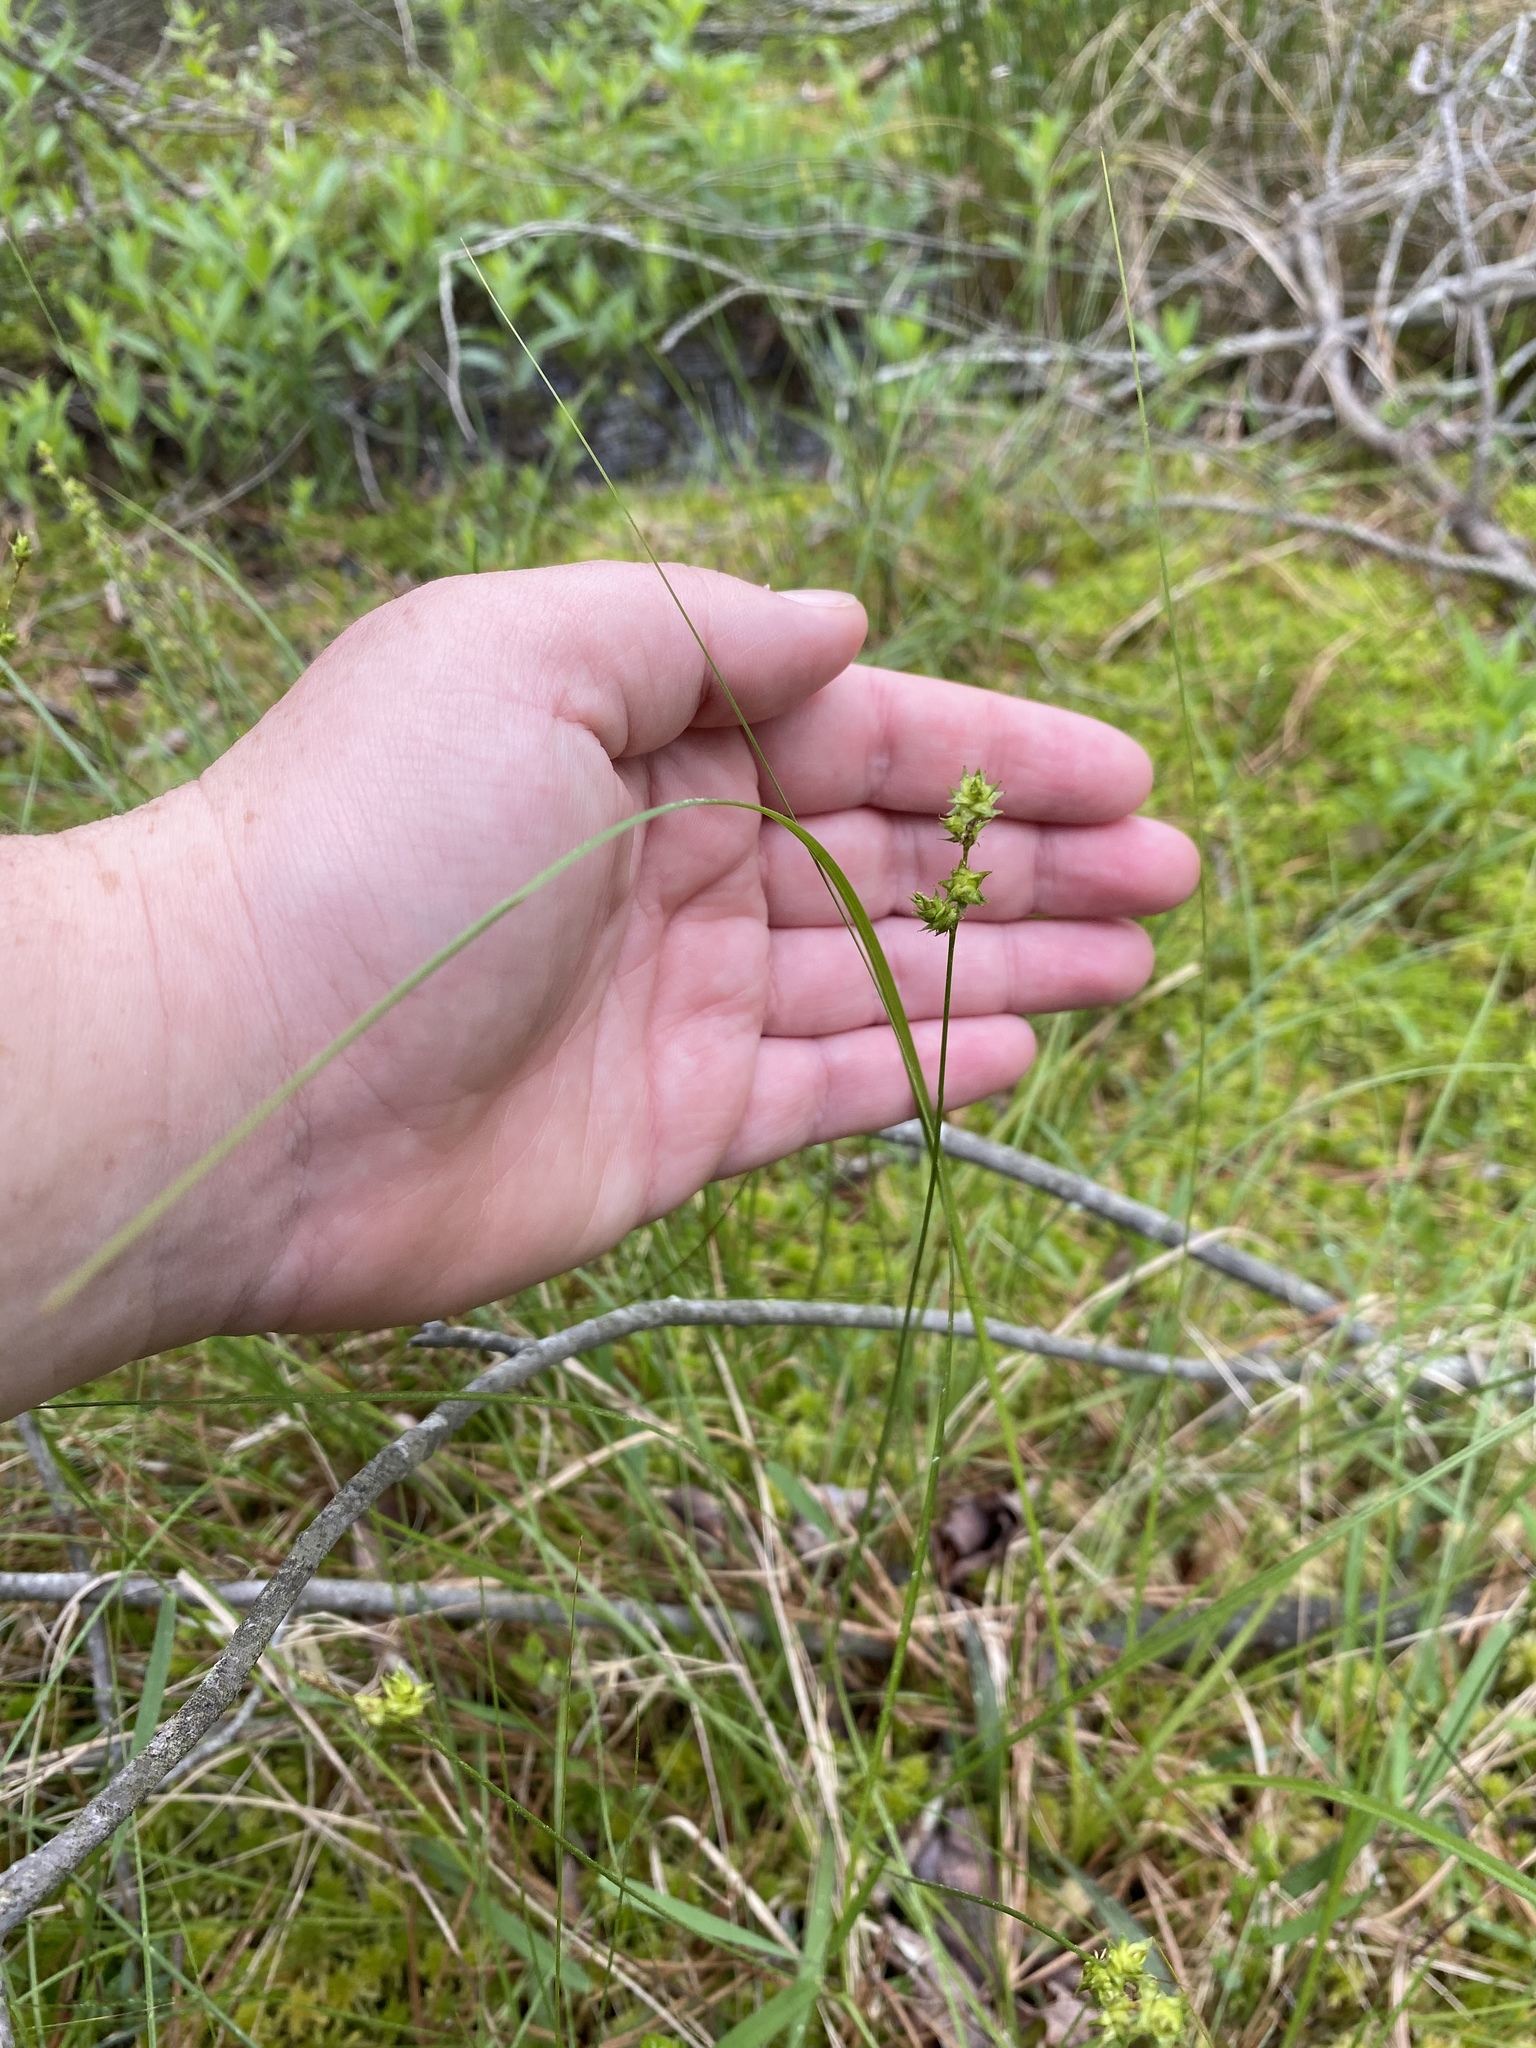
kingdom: Plantae
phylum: Tracheophyta
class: Liliopsida
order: Poales
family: Cyperaceae
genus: Carex
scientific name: Carex atlantica
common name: Atlantic sedge
